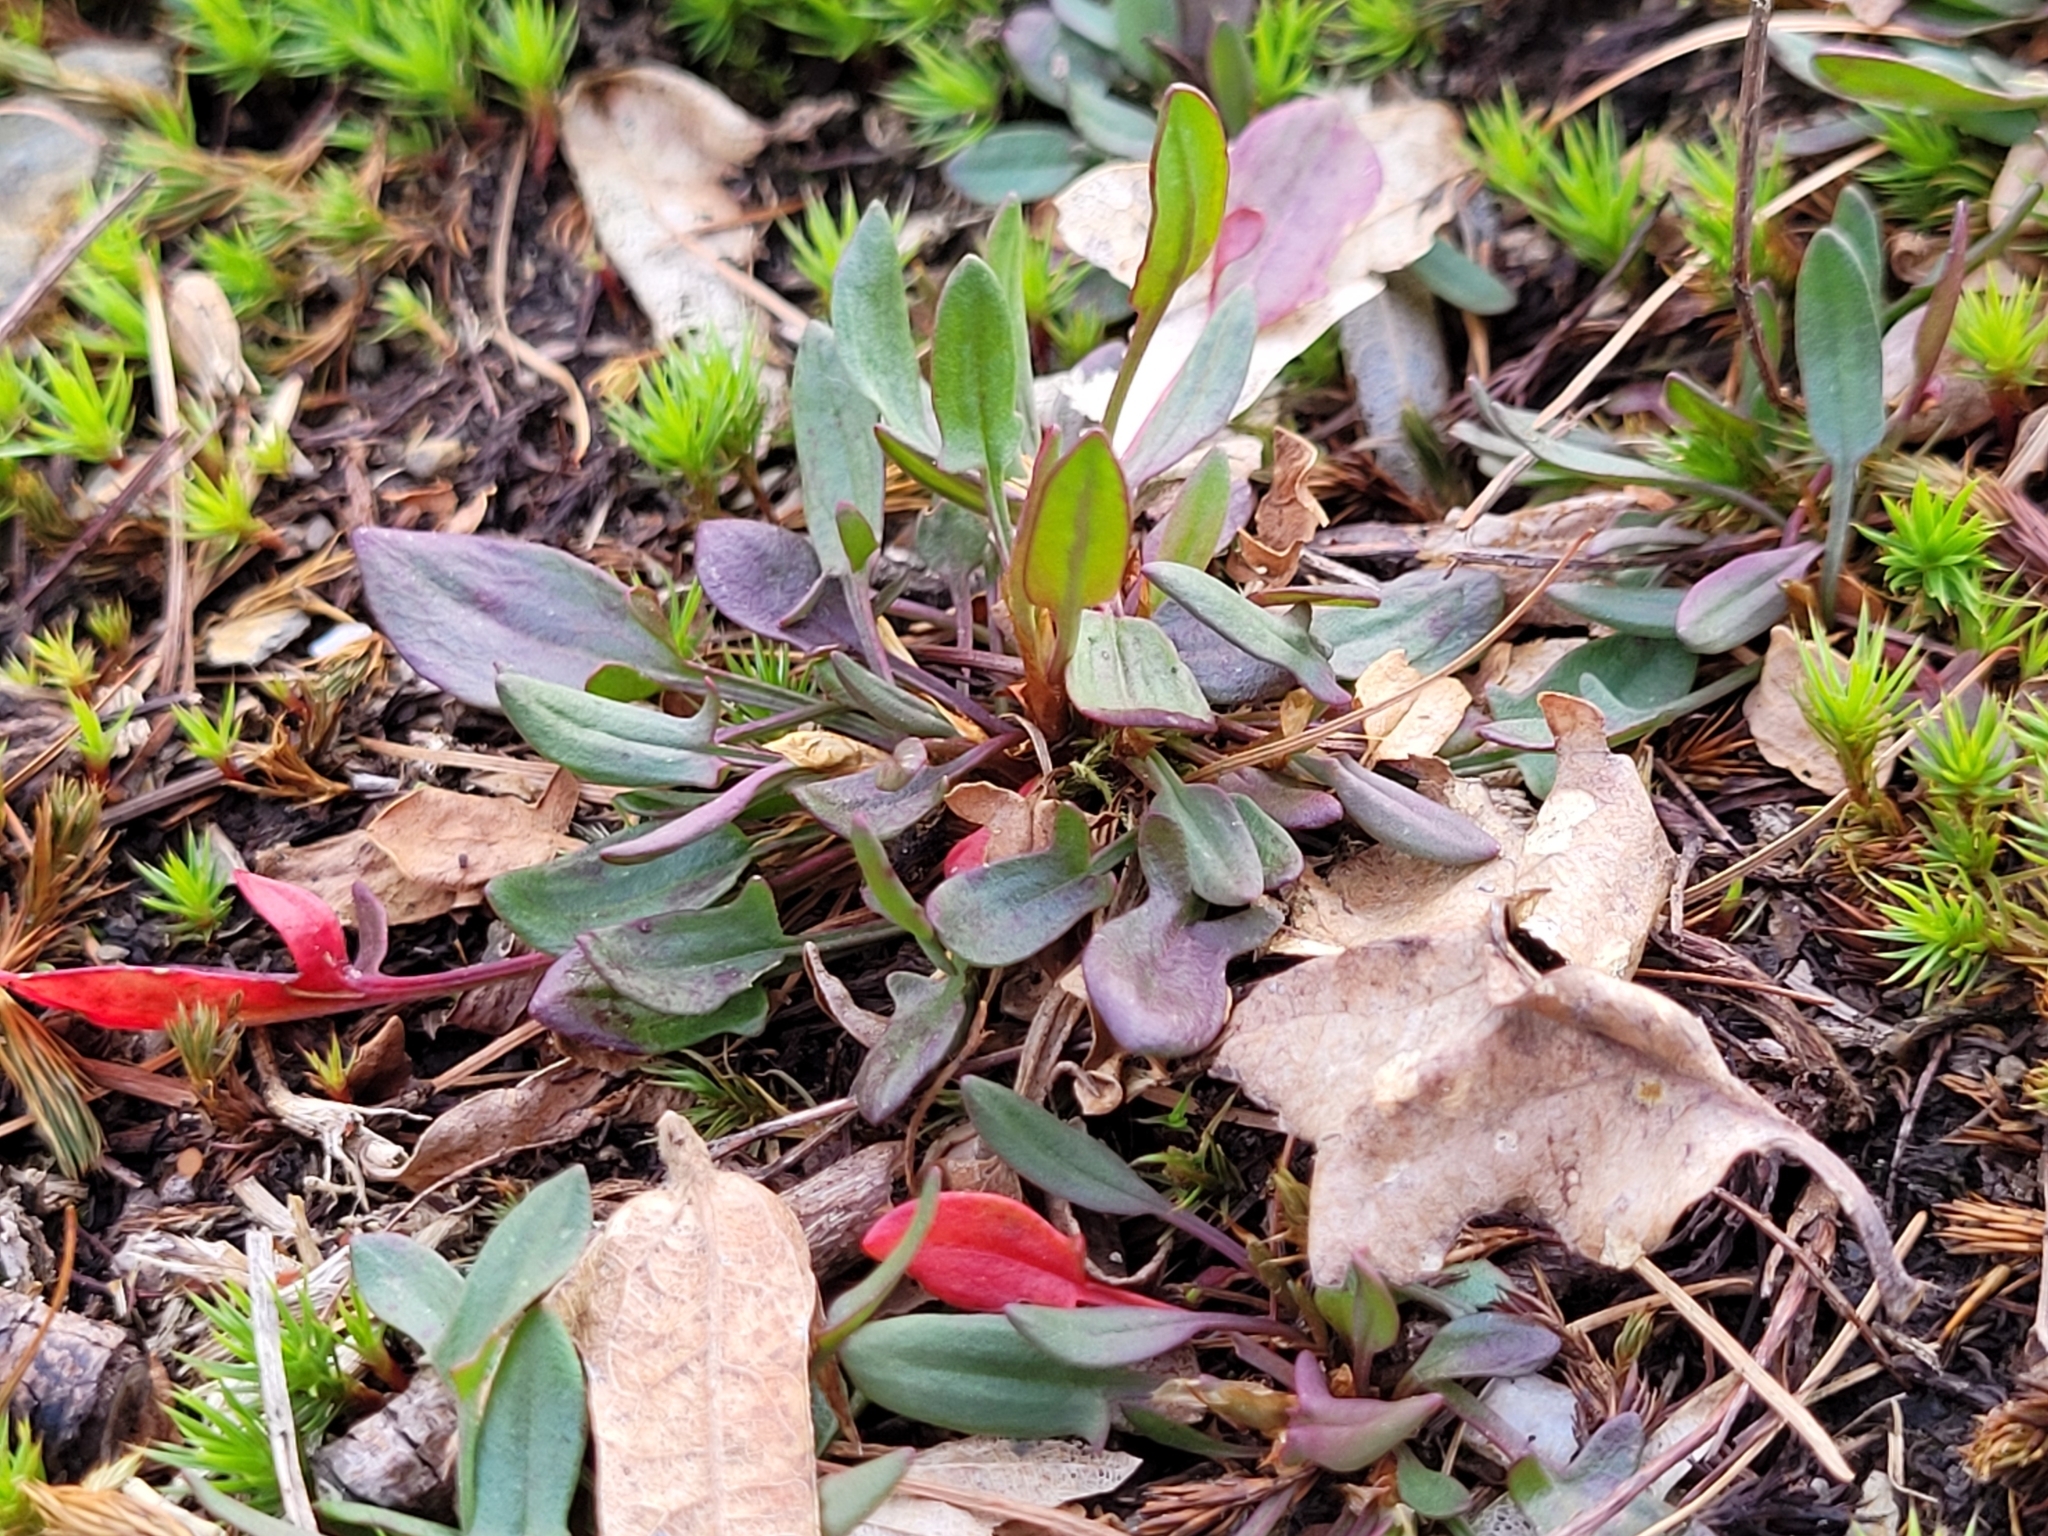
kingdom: Plantae
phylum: Tracheophyta
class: Magnoliopsida
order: Caryophyllales
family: Polygonaceae
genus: Rumex
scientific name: Rumex acetosella
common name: Common sheep sorrel
